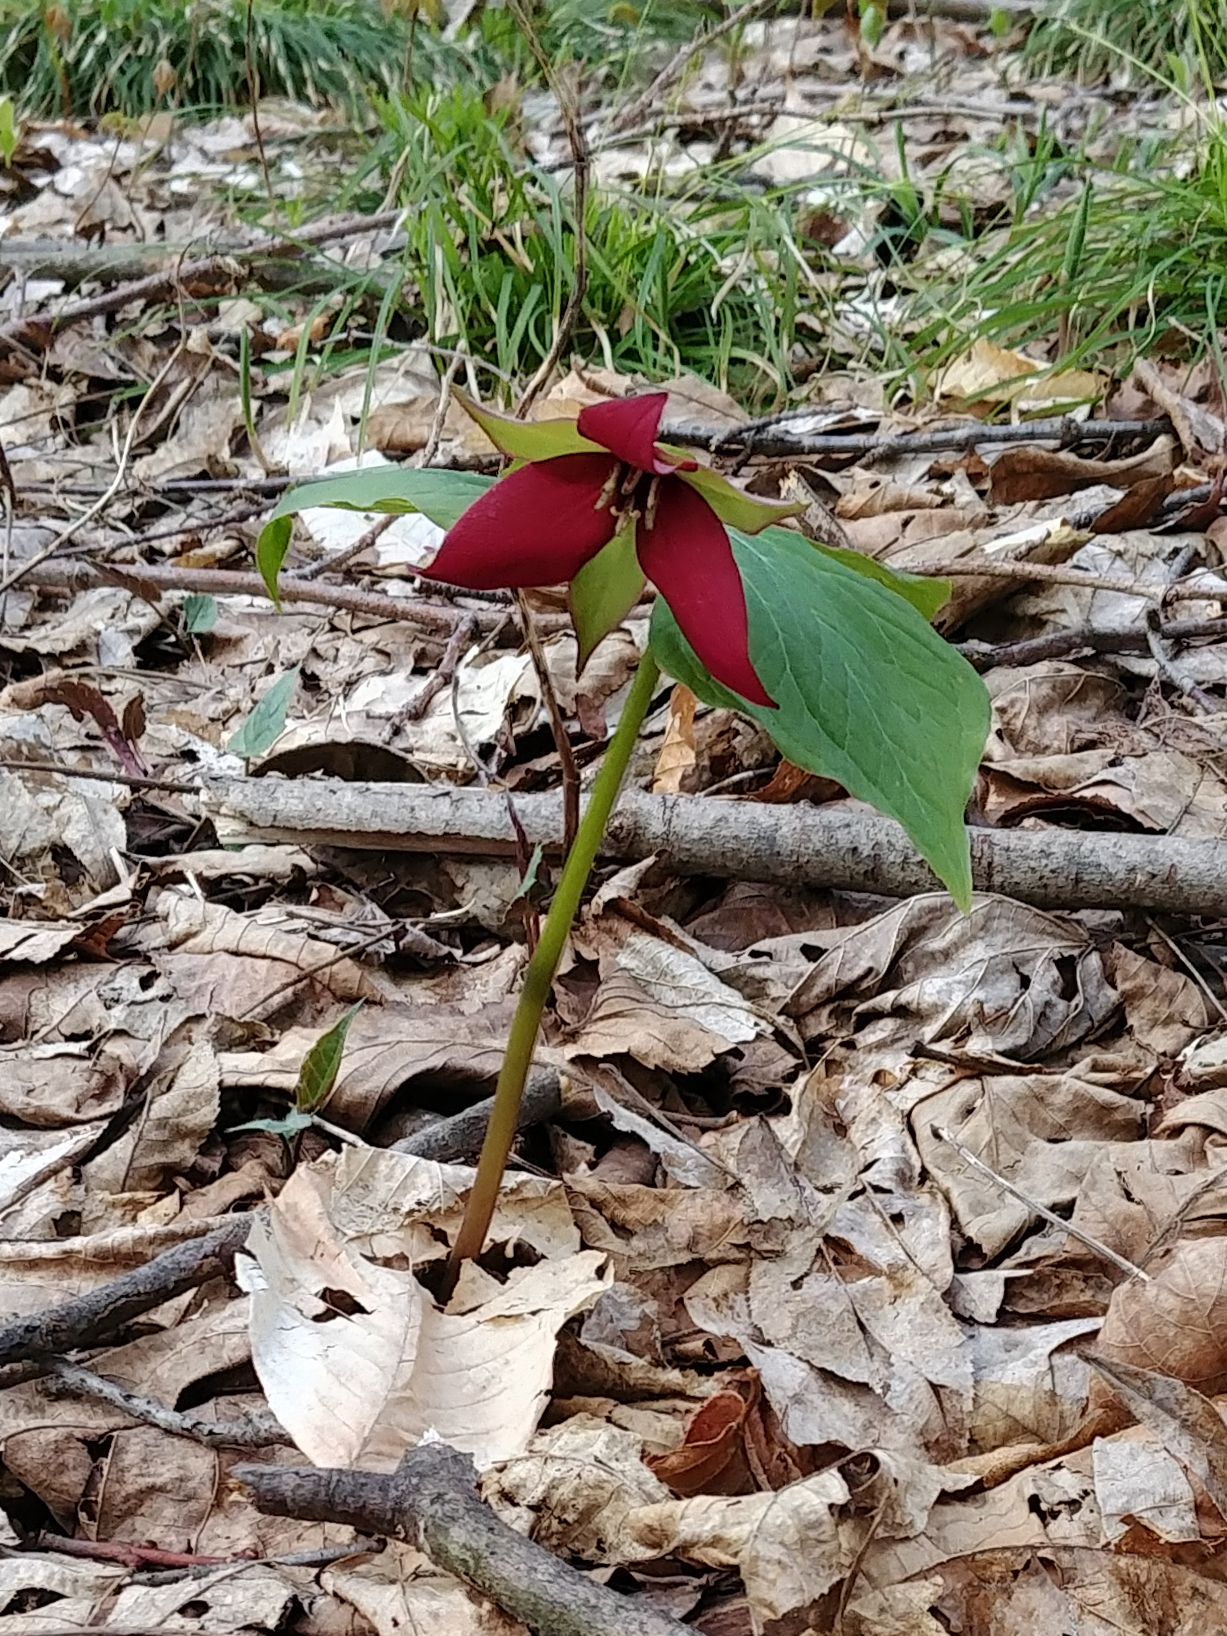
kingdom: Plantae
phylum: Tracheophyta
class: Liliopsida
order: Liliales
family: Melanthiaceae
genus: Trillium
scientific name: Trillium erectum
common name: Purple trillium
